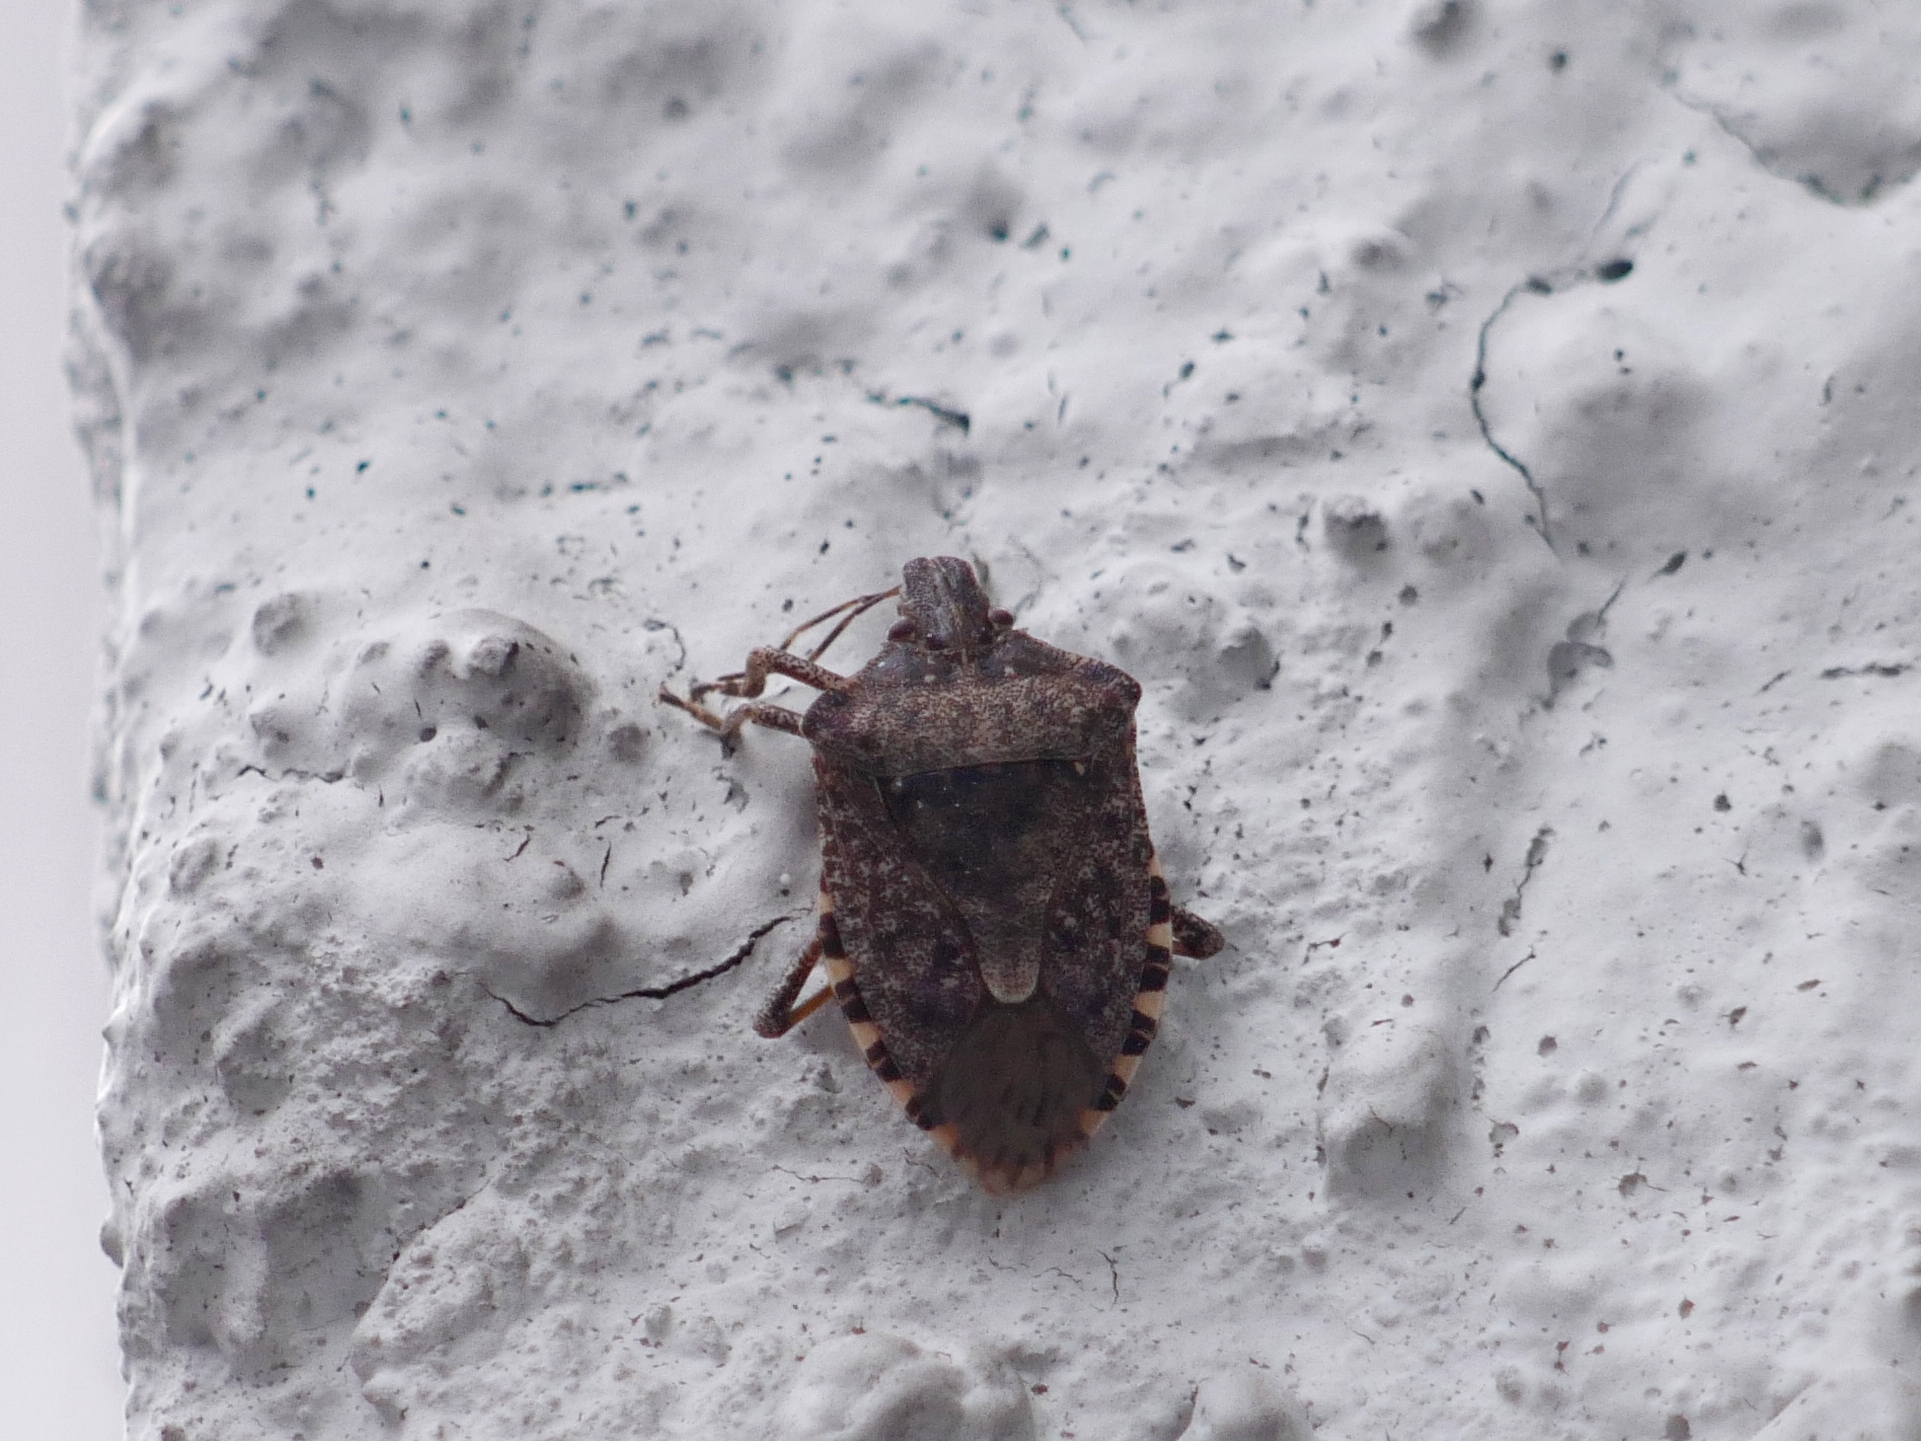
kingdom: Animalia
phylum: Arthropoda
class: Insecta
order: Hemiptera
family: Pentatomidae
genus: Halyomorpha
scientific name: Halyomorpha halys
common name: Brown marmorated stink bug
